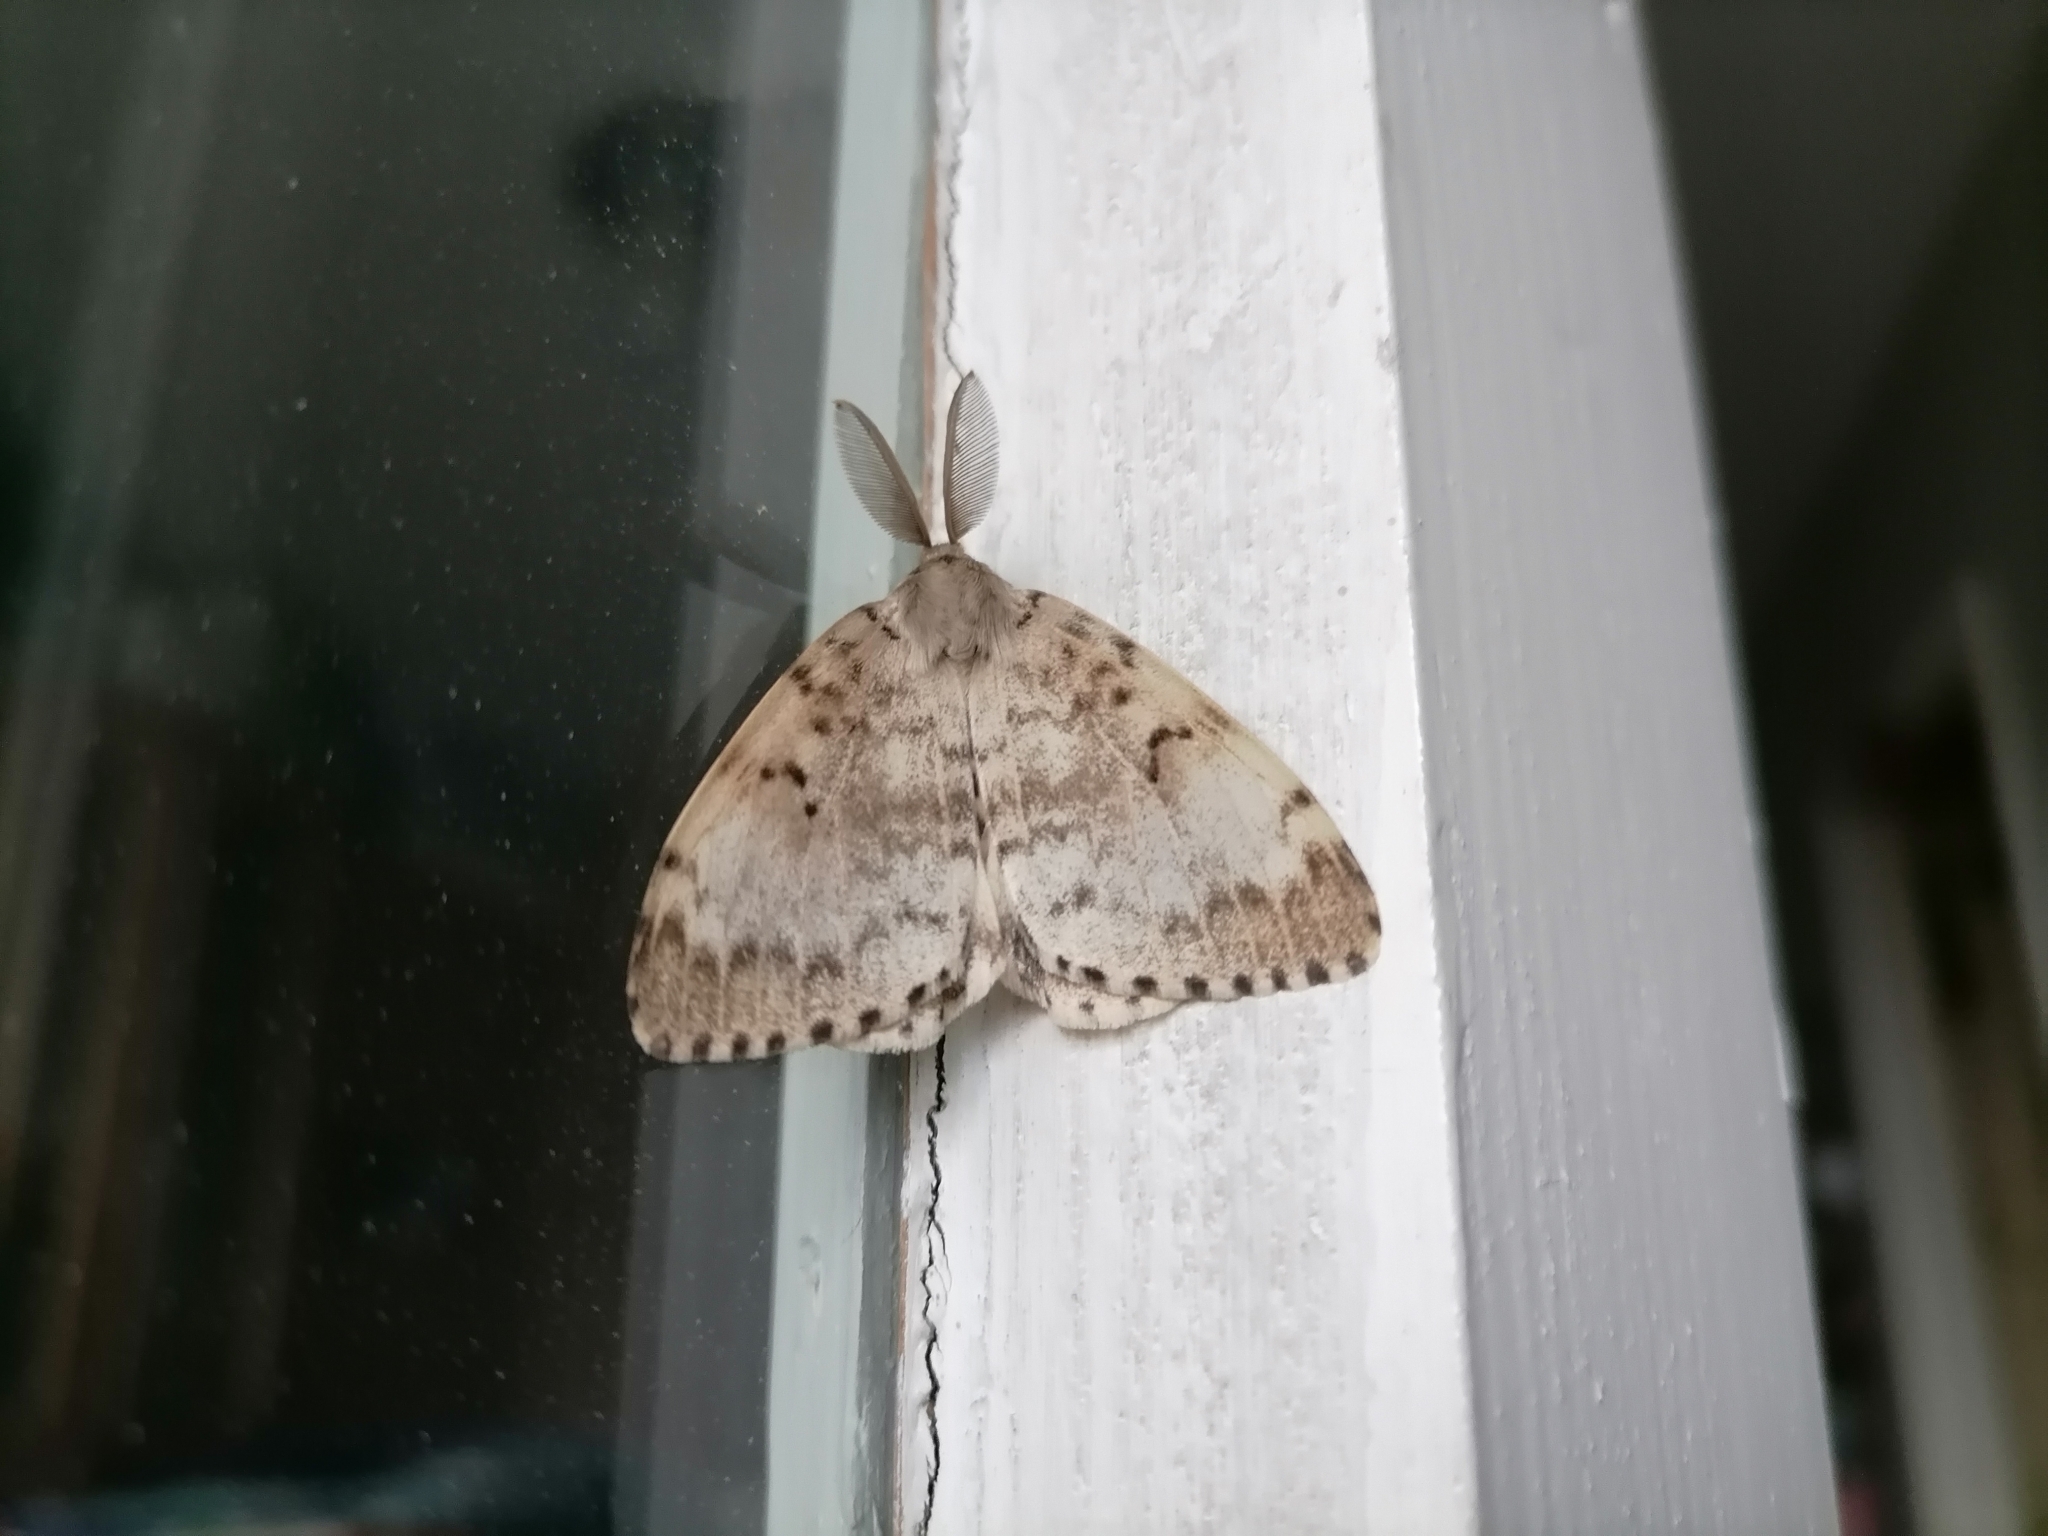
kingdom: Animalia
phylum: Arthropoda
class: Insecta
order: Lepidoptera
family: Erebidae
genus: Lymantria
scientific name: Lymantria dispar
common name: Gypsy moth
